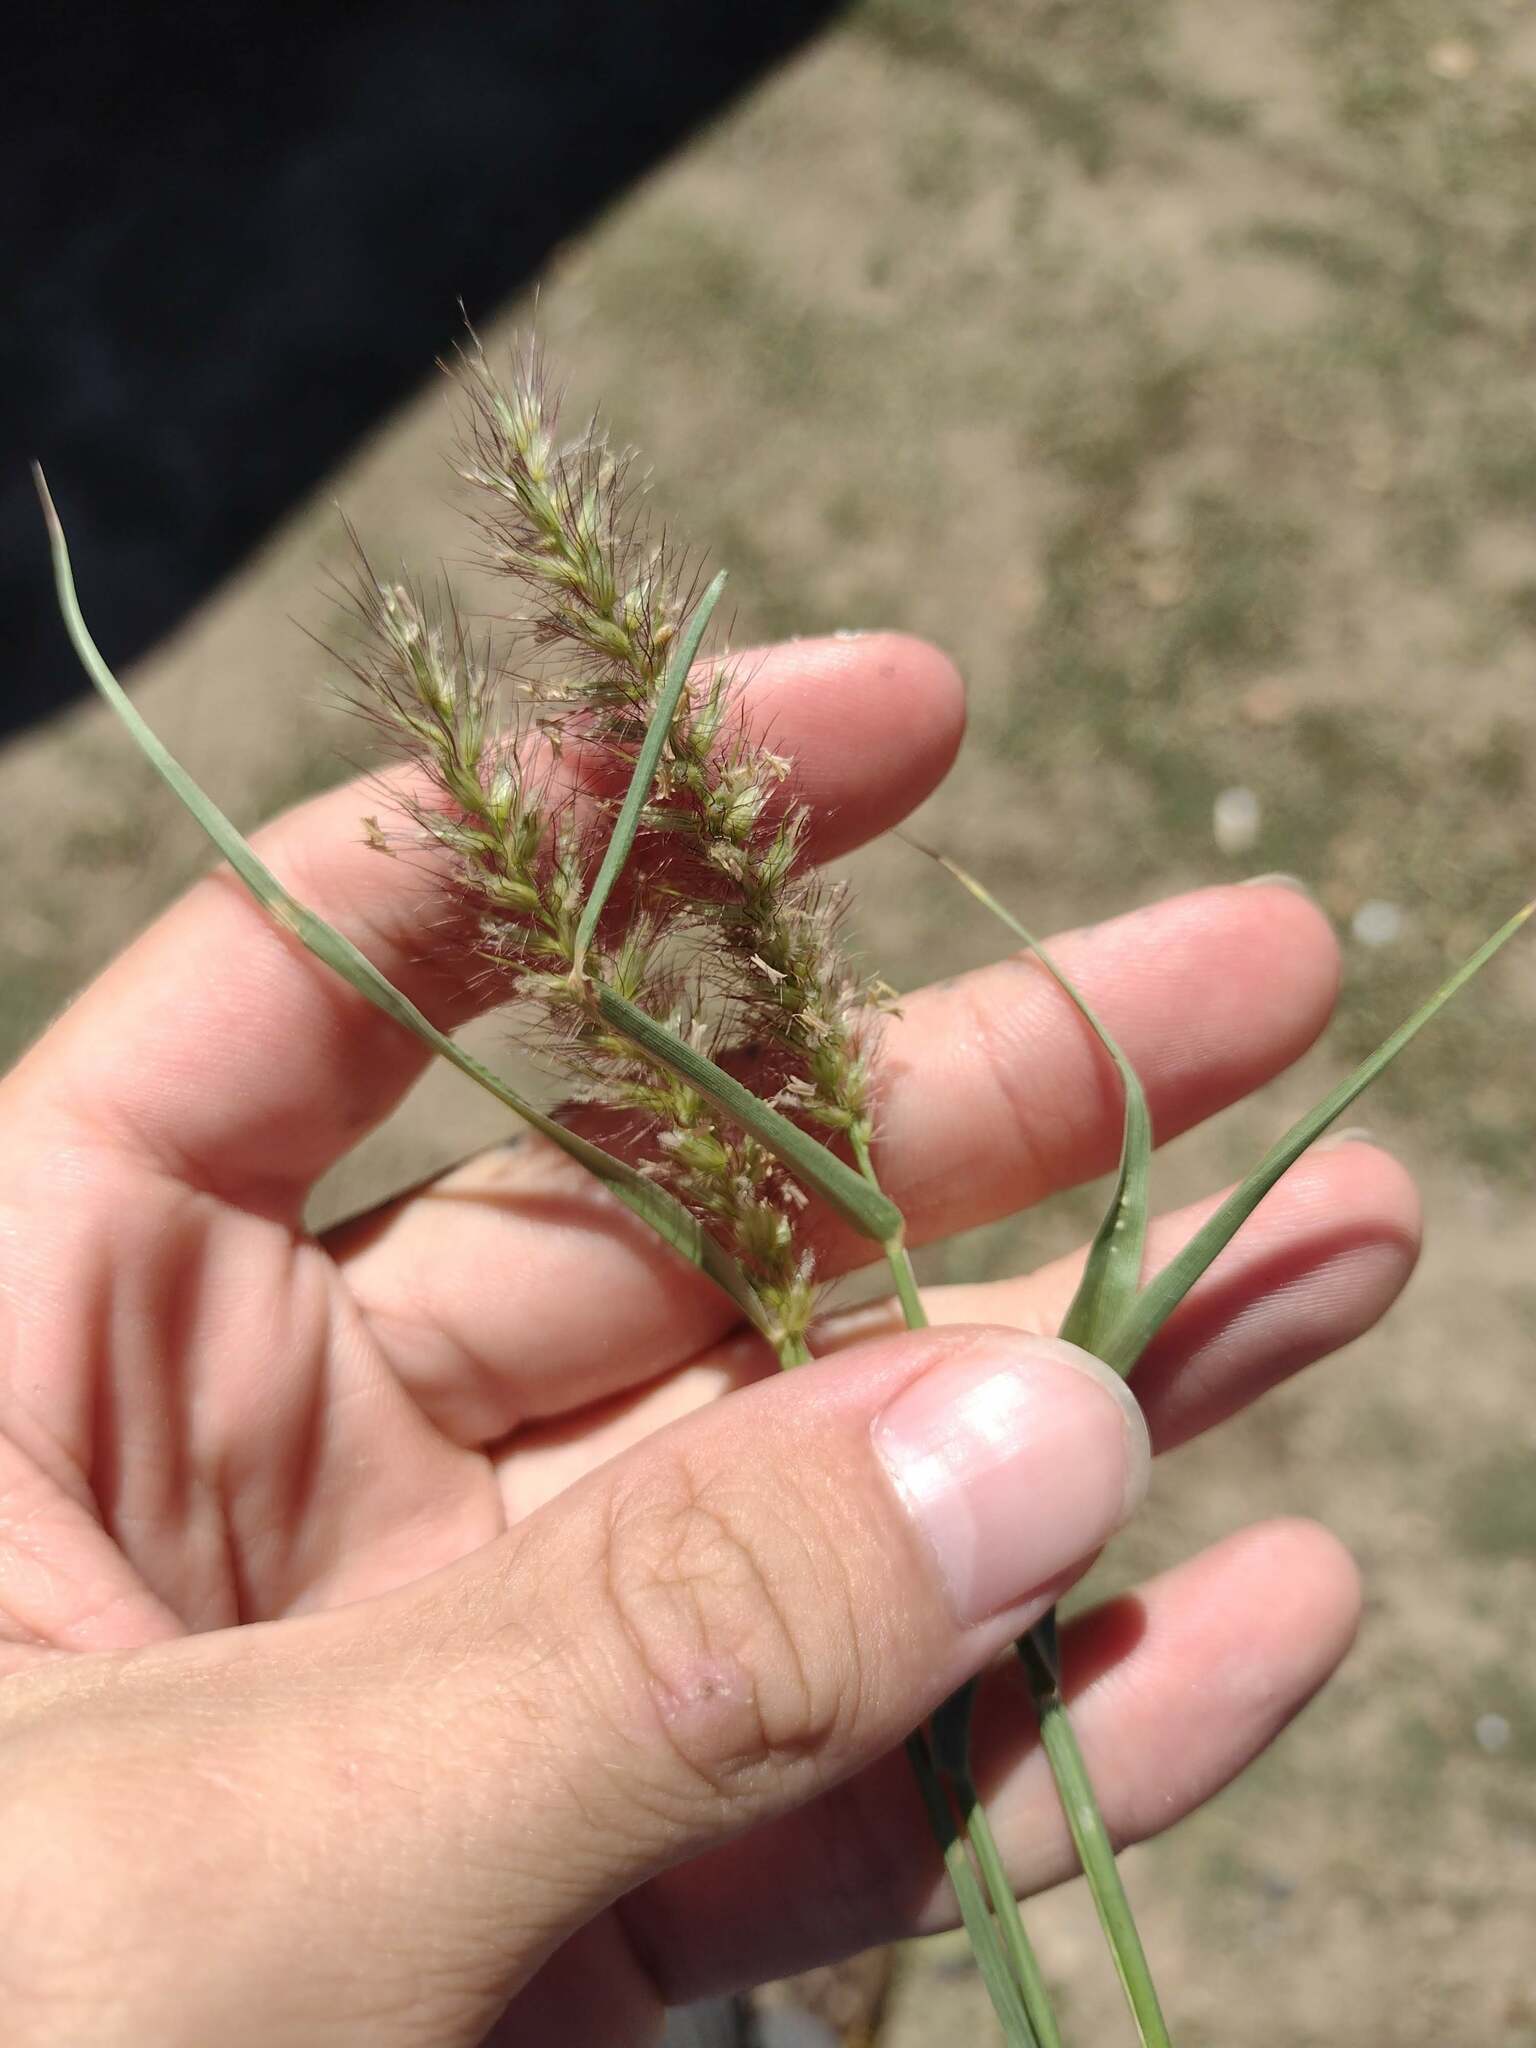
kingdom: Plantae
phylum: Tracheophyta
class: Liliopsida
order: Poales
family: Poaceae
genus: Cenchrus
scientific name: Cenchrus ciliaris
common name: Buffelgrass
